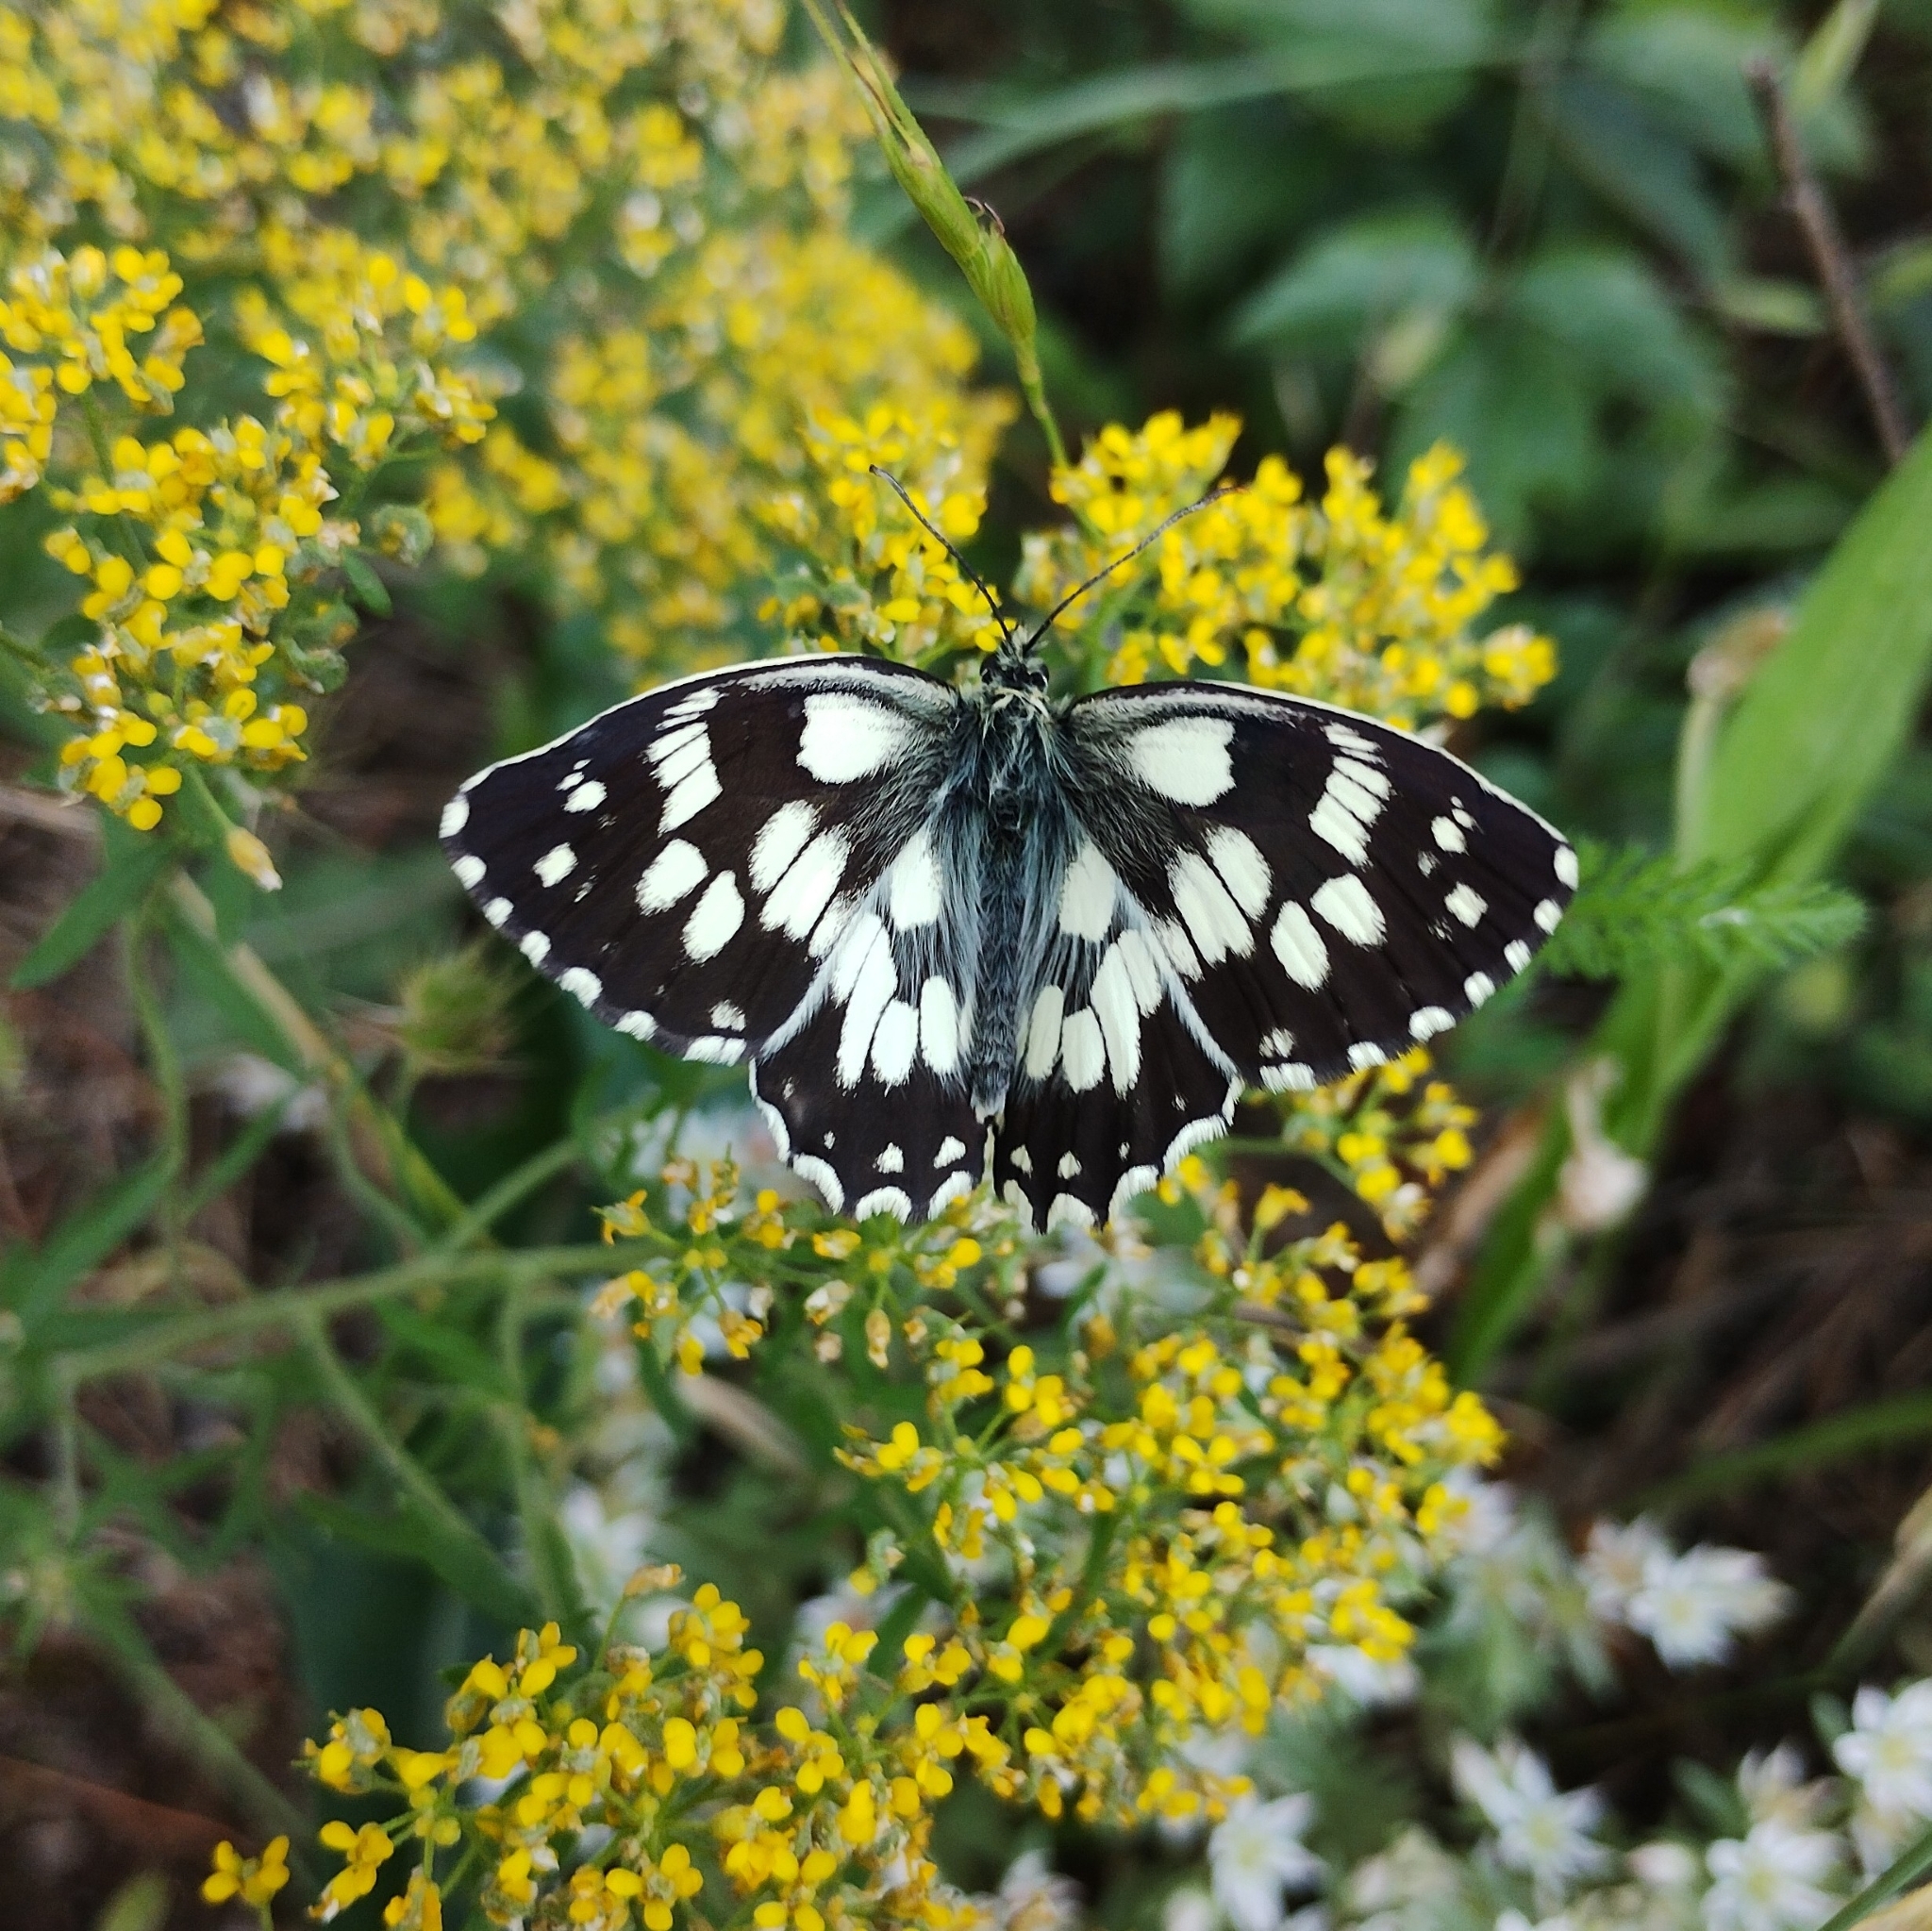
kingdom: Animalia
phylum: Arthropoda
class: Insecta
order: Lepidoptera
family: Nymphalidae
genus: Melanargia
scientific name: Melanargia galathea
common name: Marbled white
